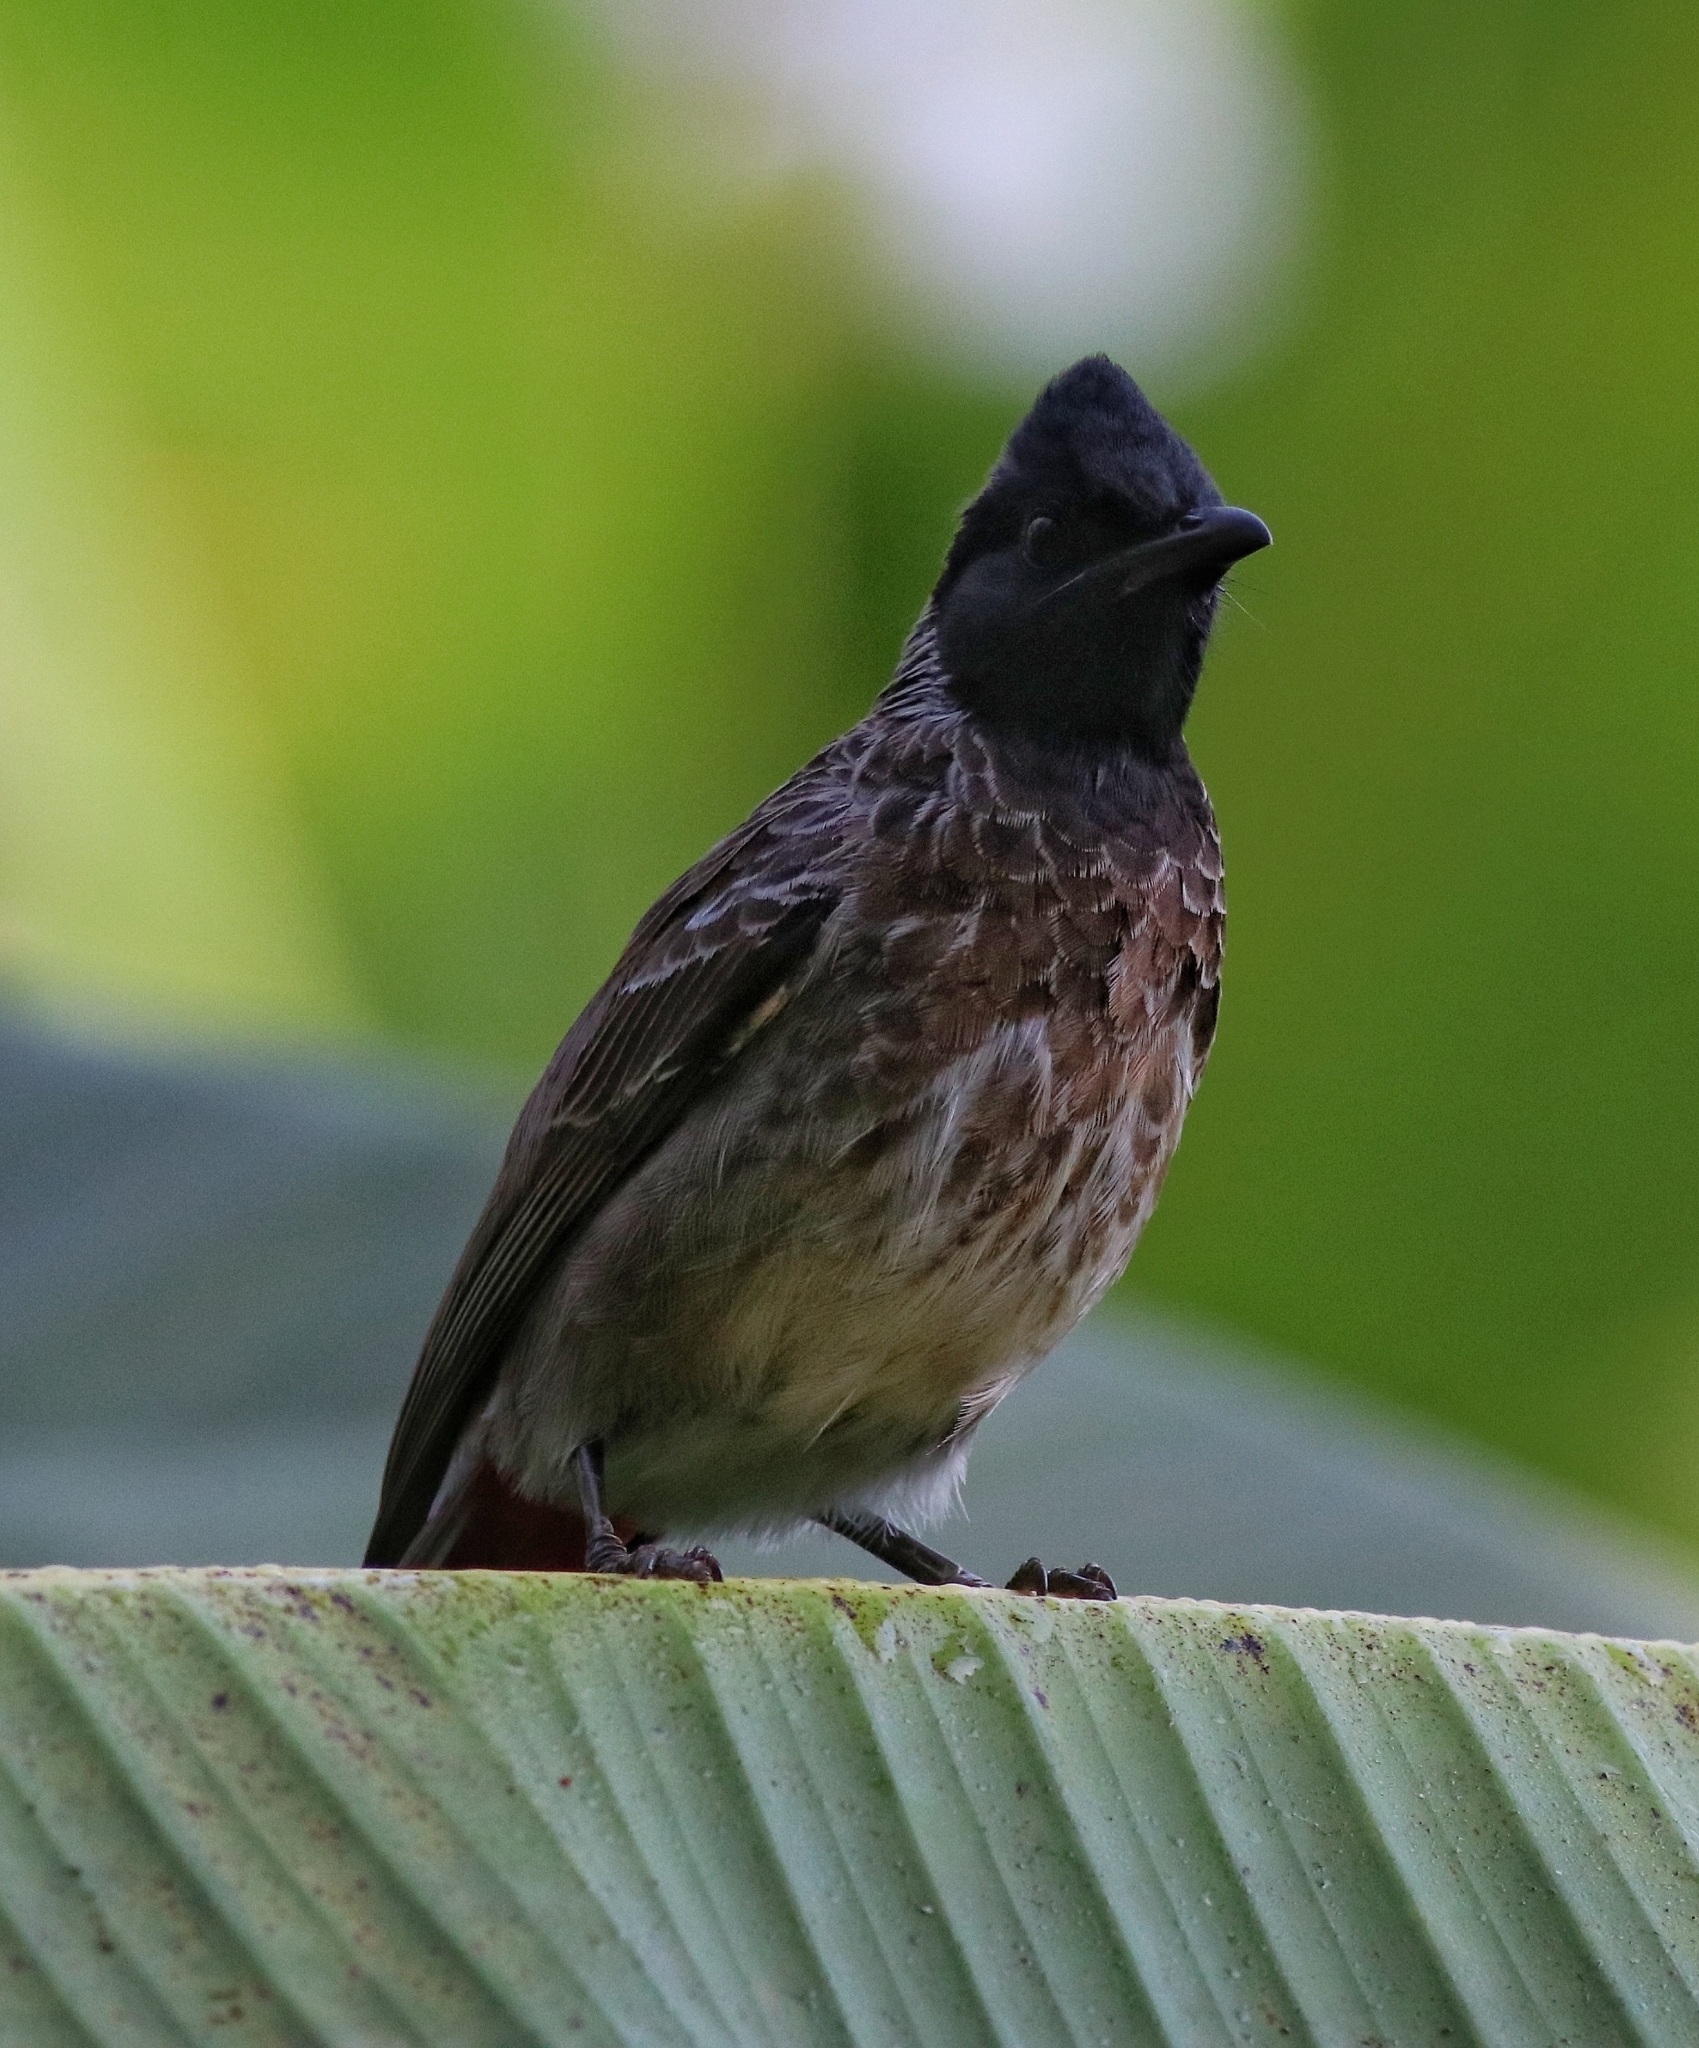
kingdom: Animalia
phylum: Chordata
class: Aves
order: Passeriformes
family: Pycnonotidae
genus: Pycnonotus
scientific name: Pycnonotus cafer
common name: Red-vented bulbul
